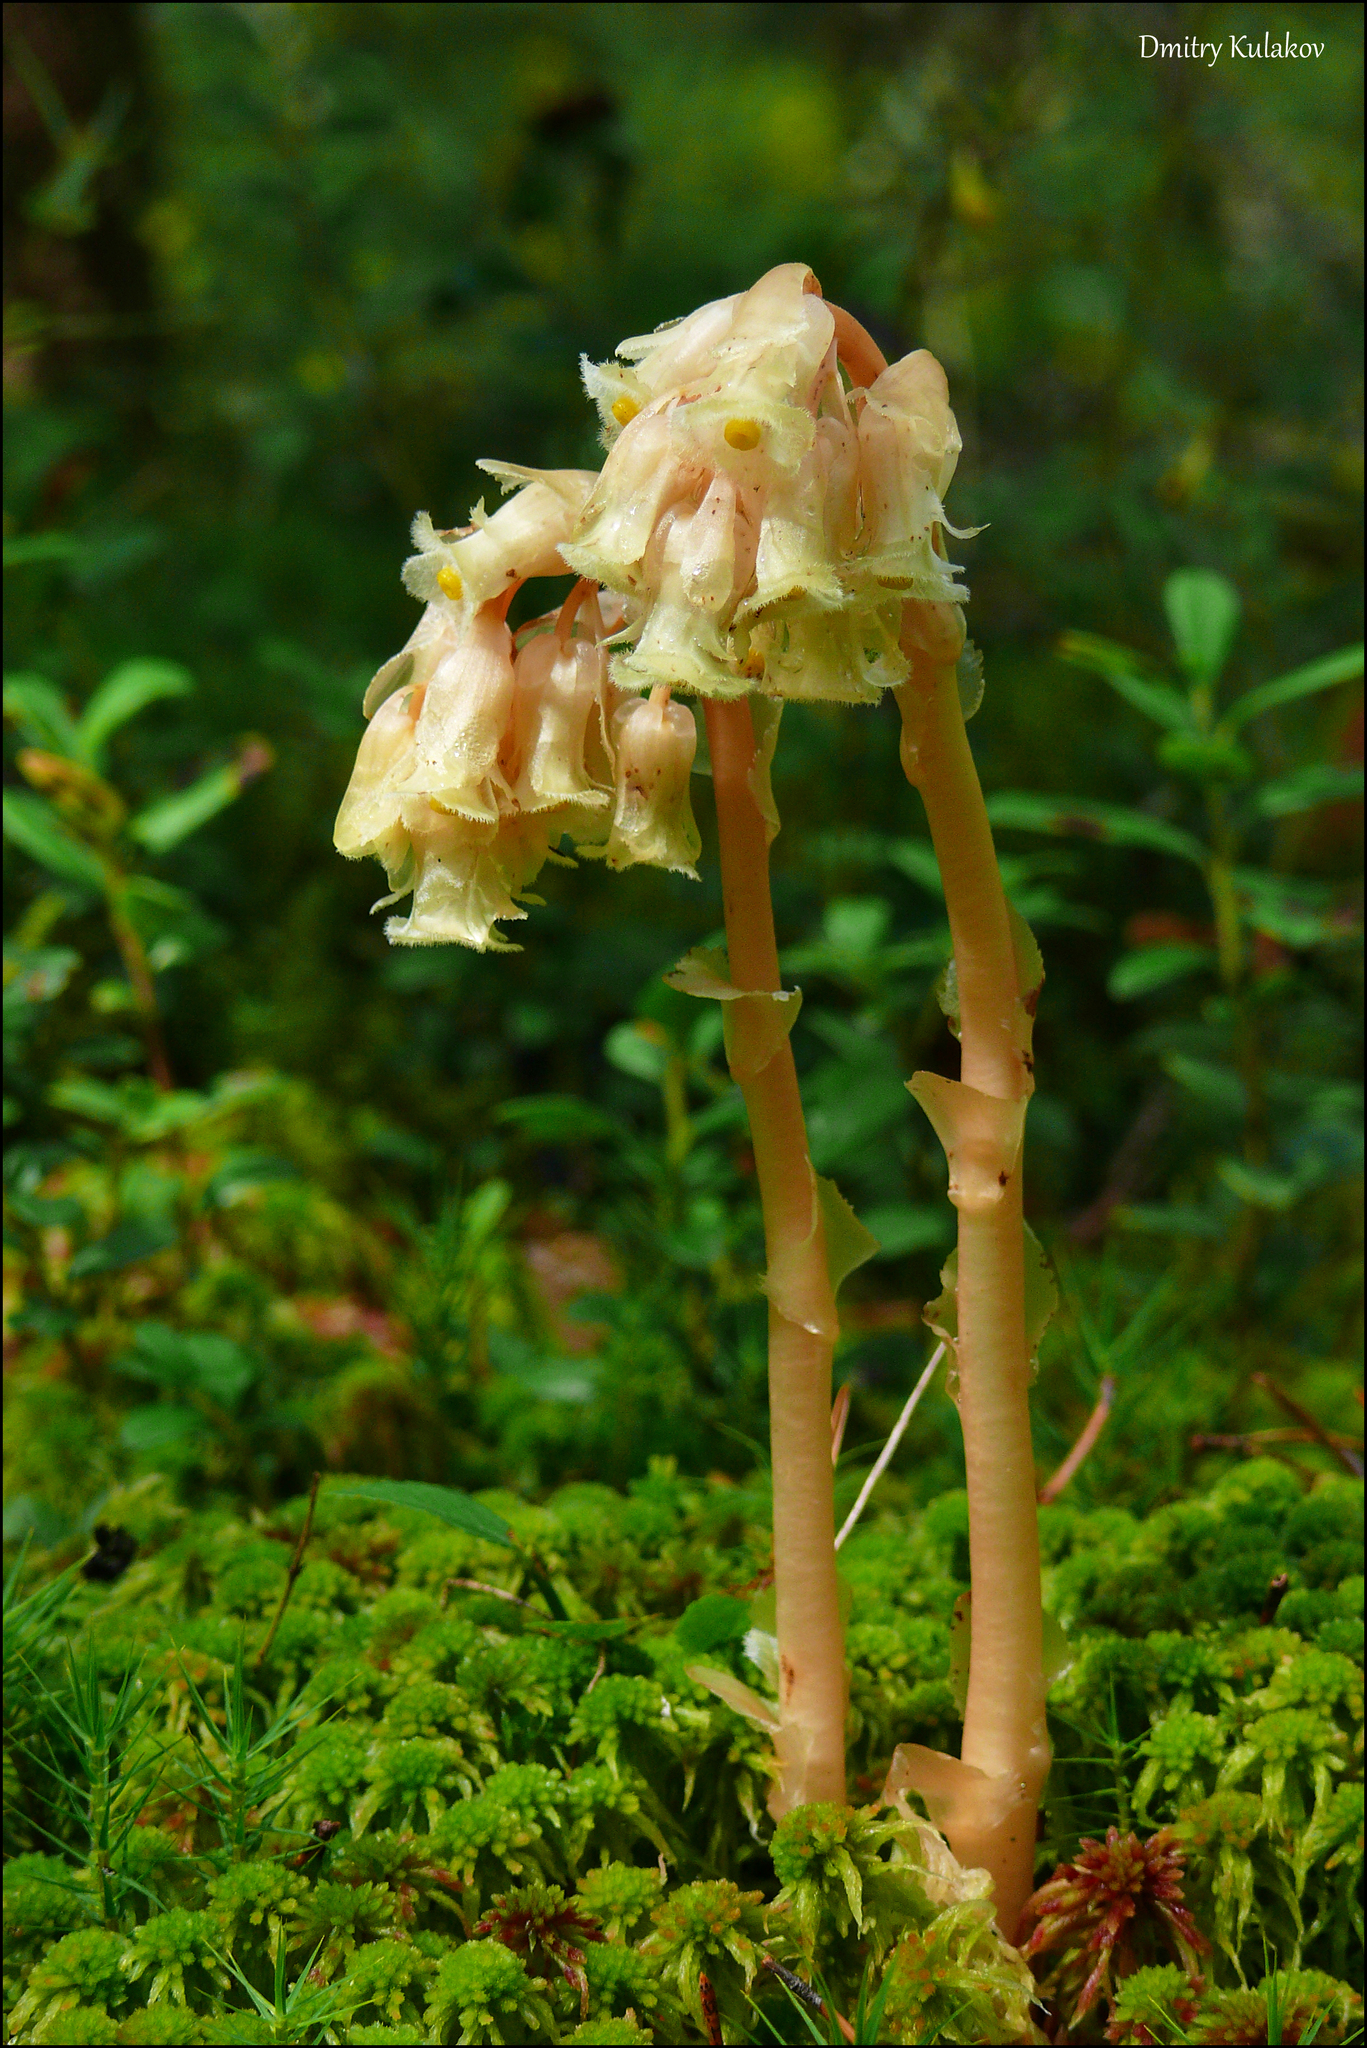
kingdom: Plantae
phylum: Tracheophyta
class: Magnoliopsida
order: Ericales
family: Ericaceae
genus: Hypopitys
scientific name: Hypopitys monotropa
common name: Yellow bird's-nest
